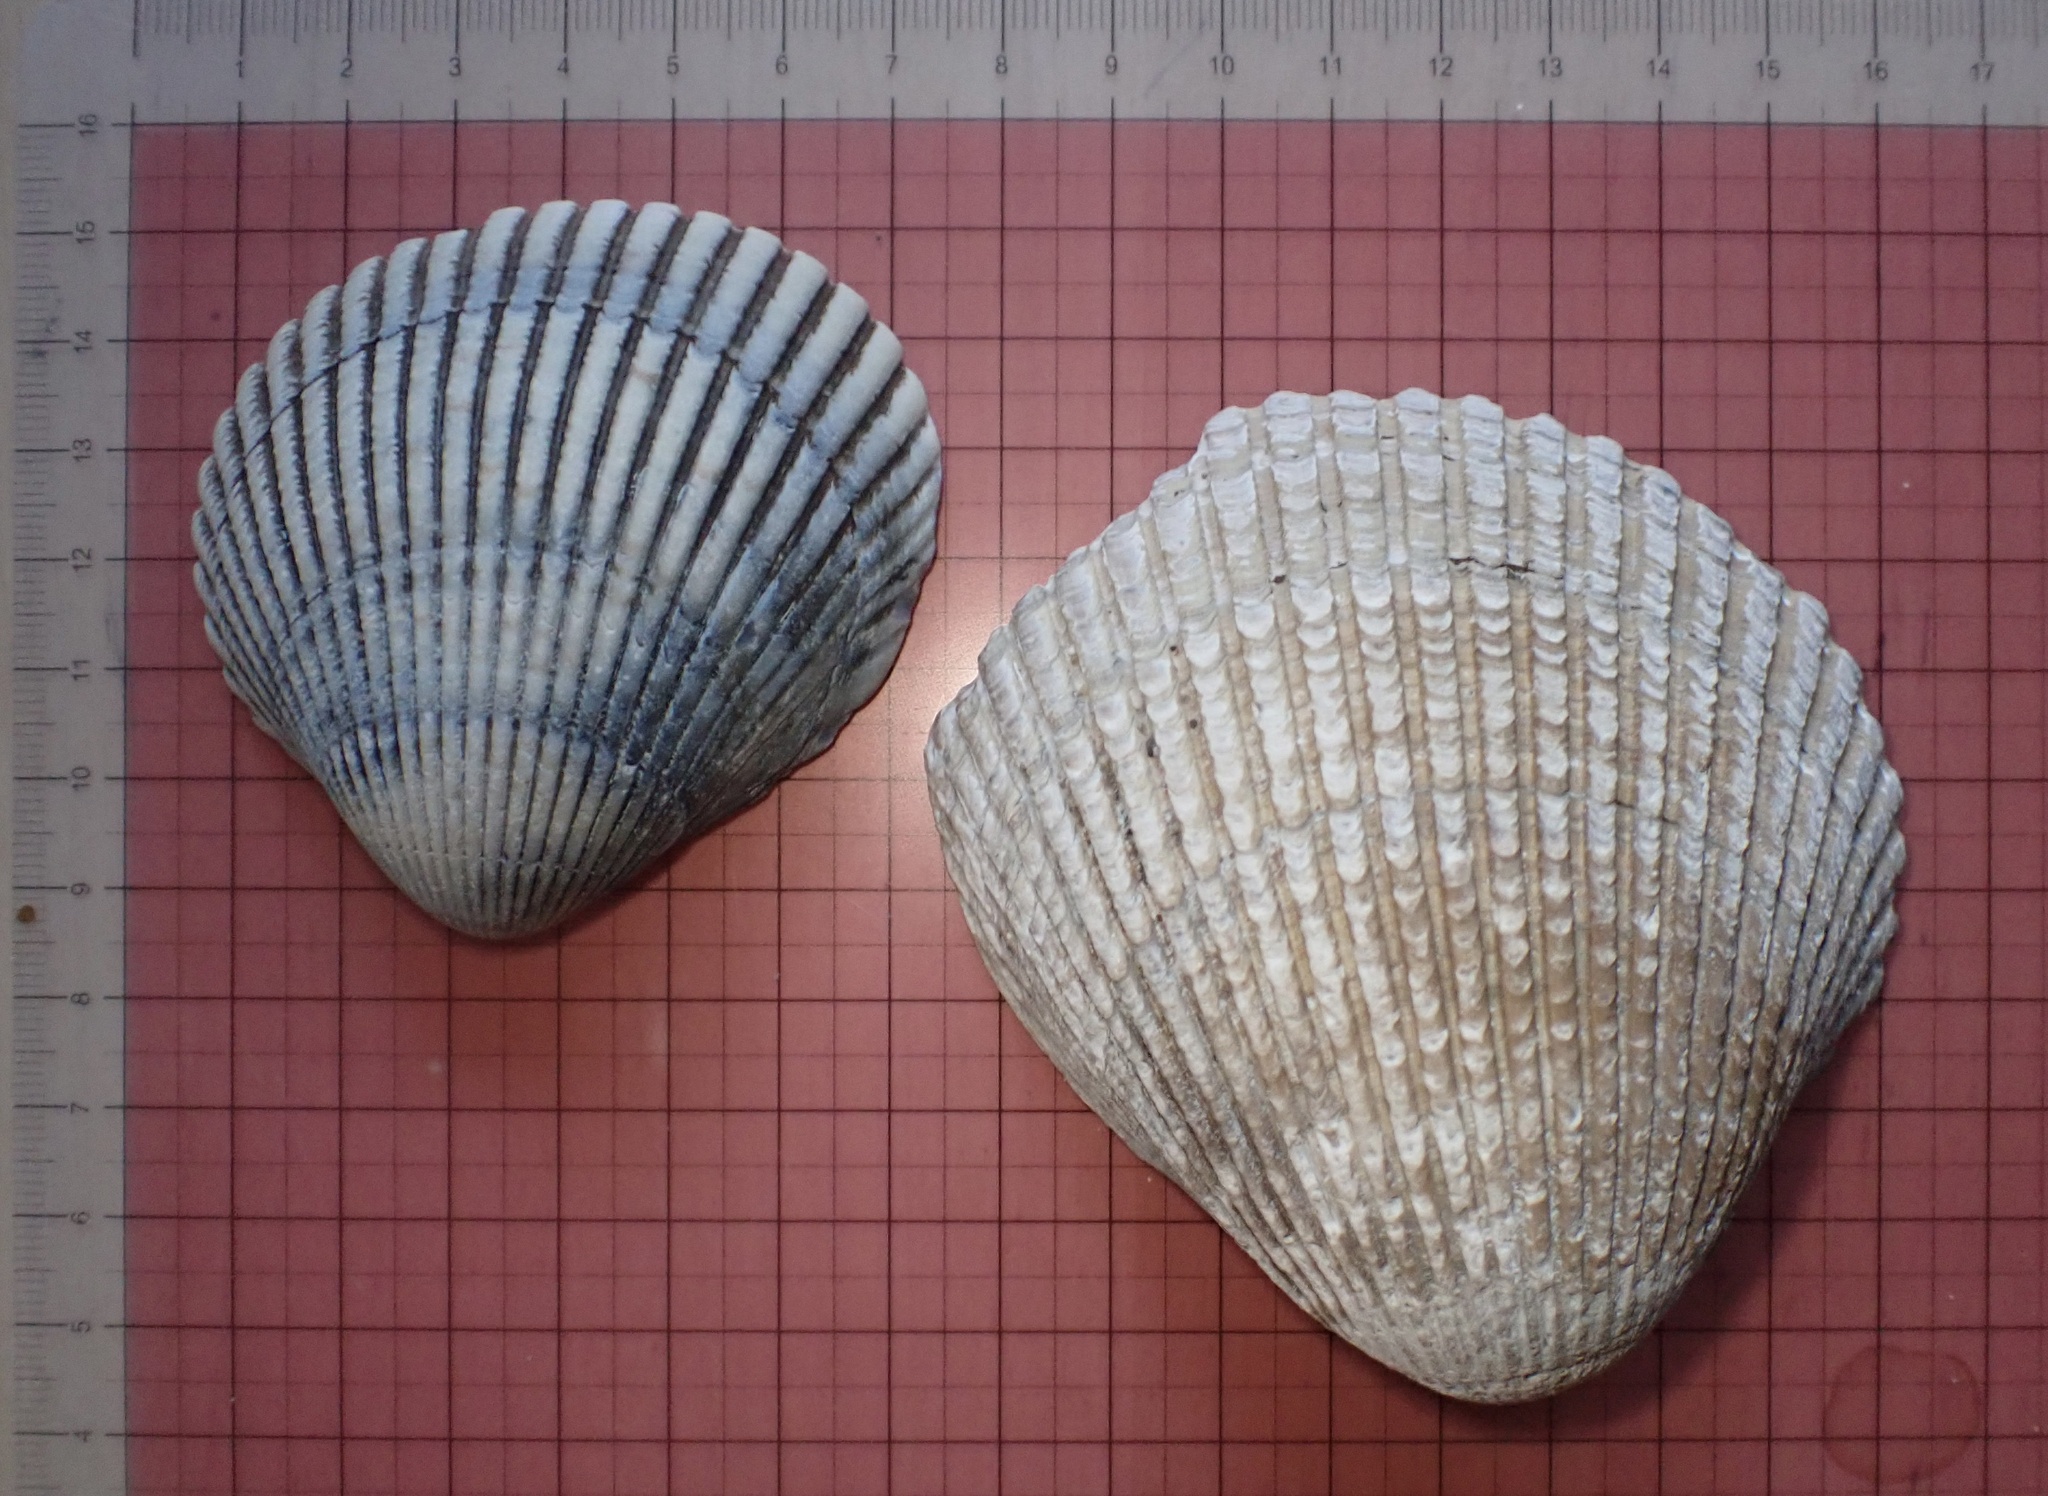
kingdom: Animalia
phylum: Mollusca
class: Bivalvia
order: Cardiida
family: Cardiidae
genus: Clinocardium
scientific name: Clinocardium nuttallii
